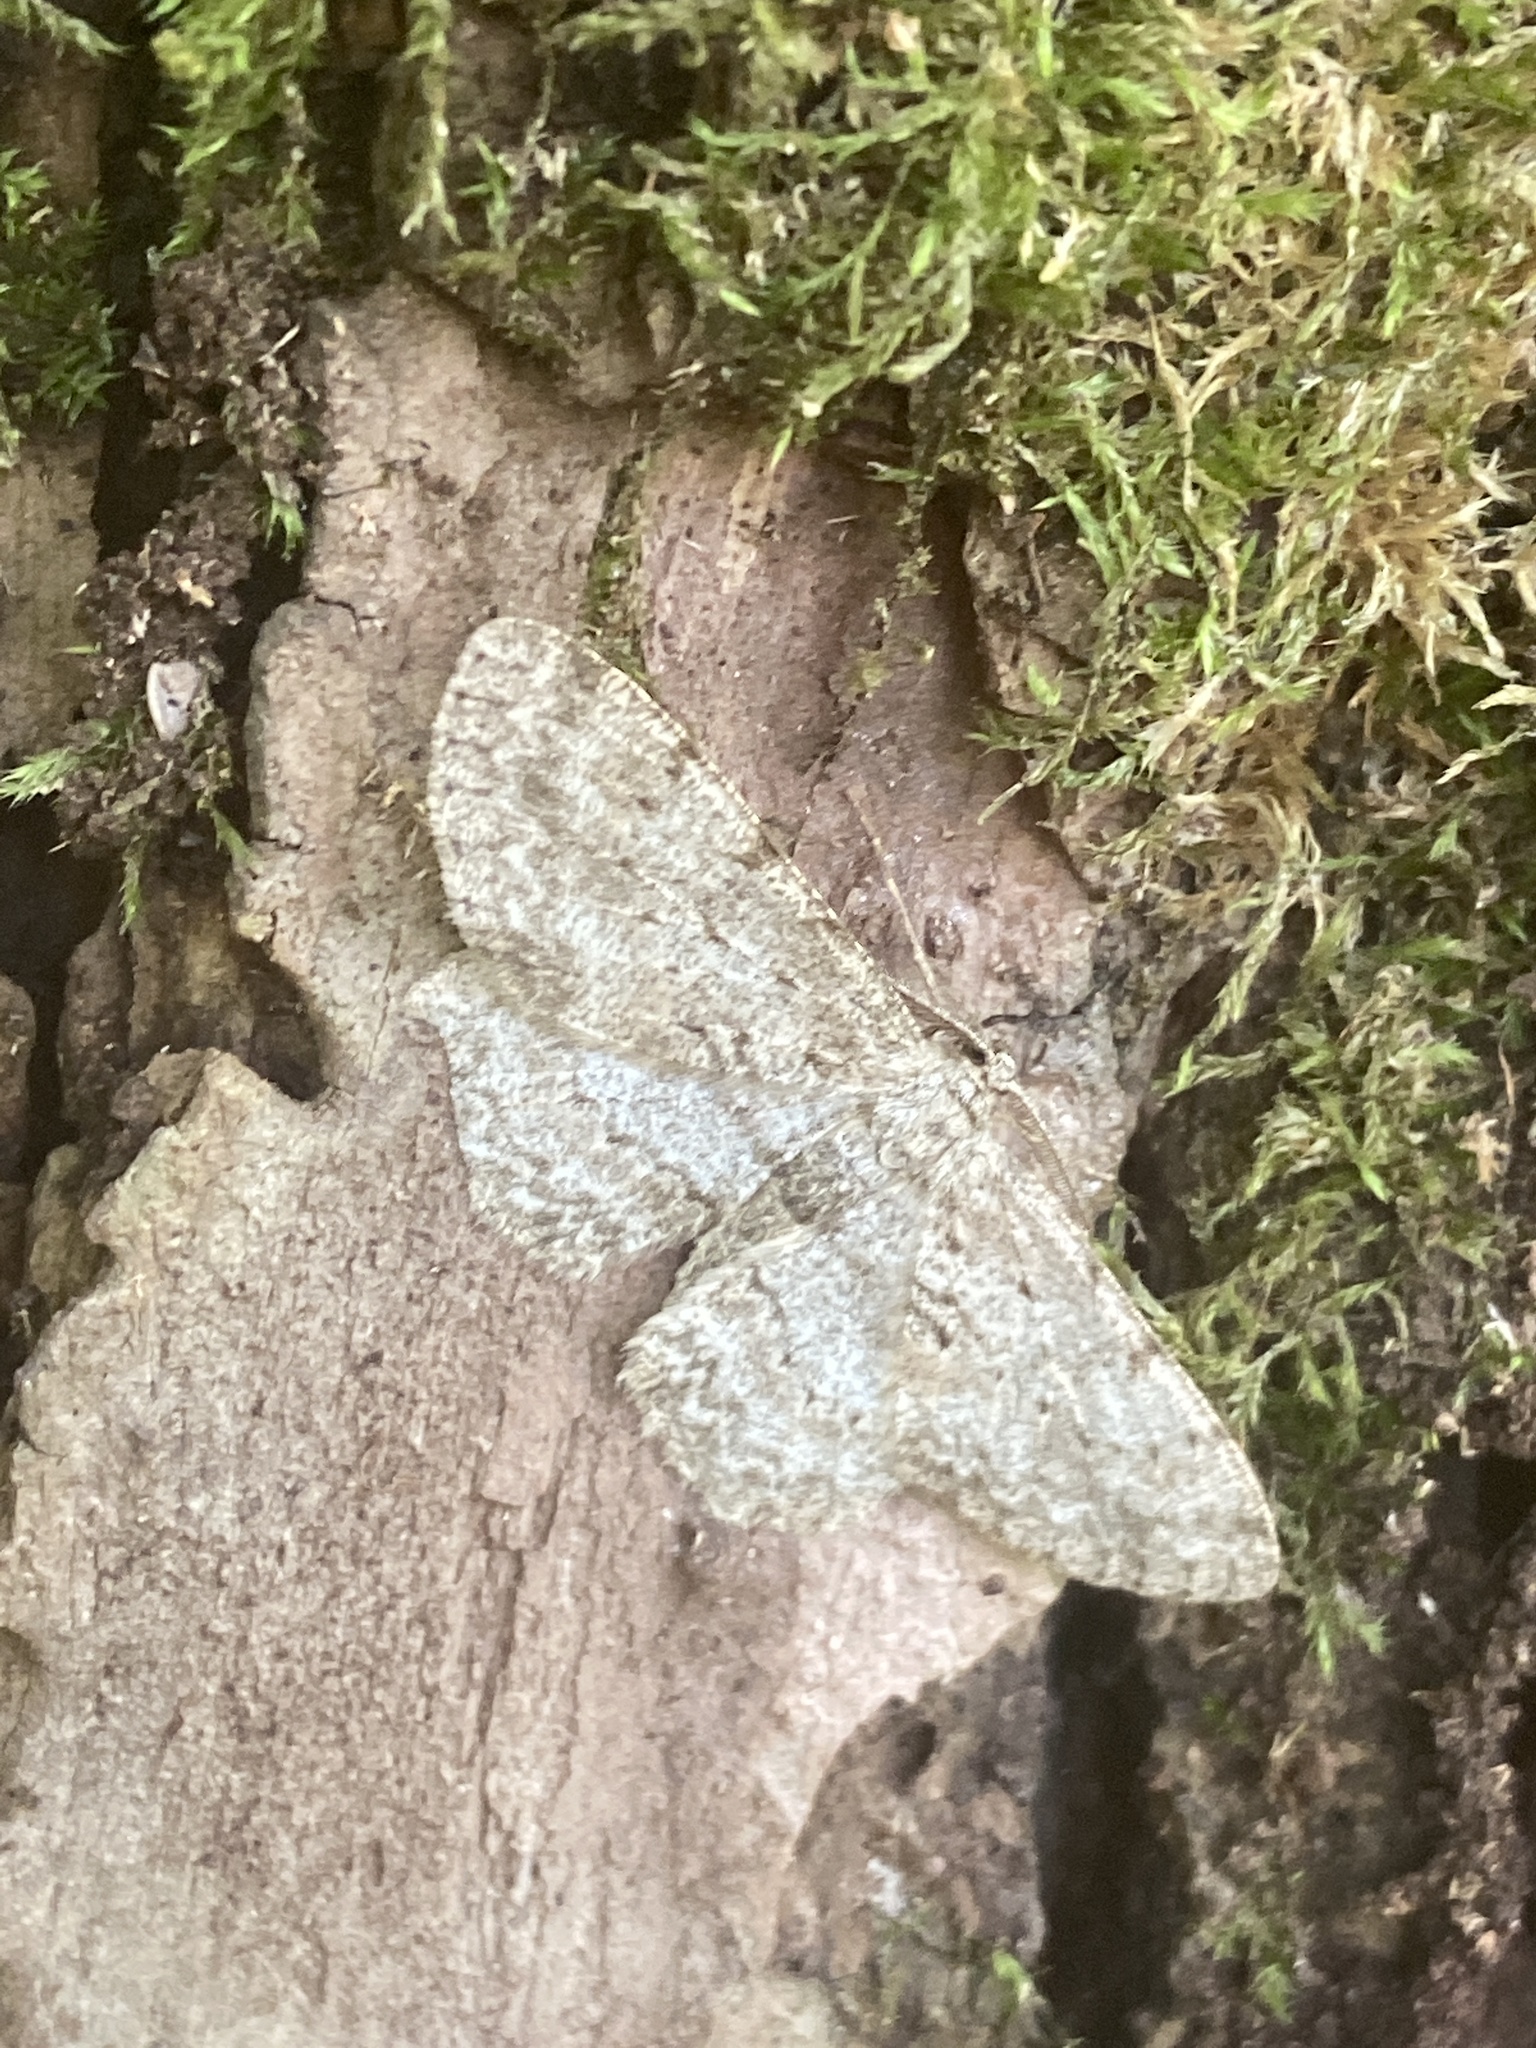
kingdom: Animalia
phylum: Arthropoda
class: Insecta
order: Lepidoptera
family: Geometridae
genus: Hypomecis
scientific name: Hypomecis punctinalis
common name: Pale oak beauty
